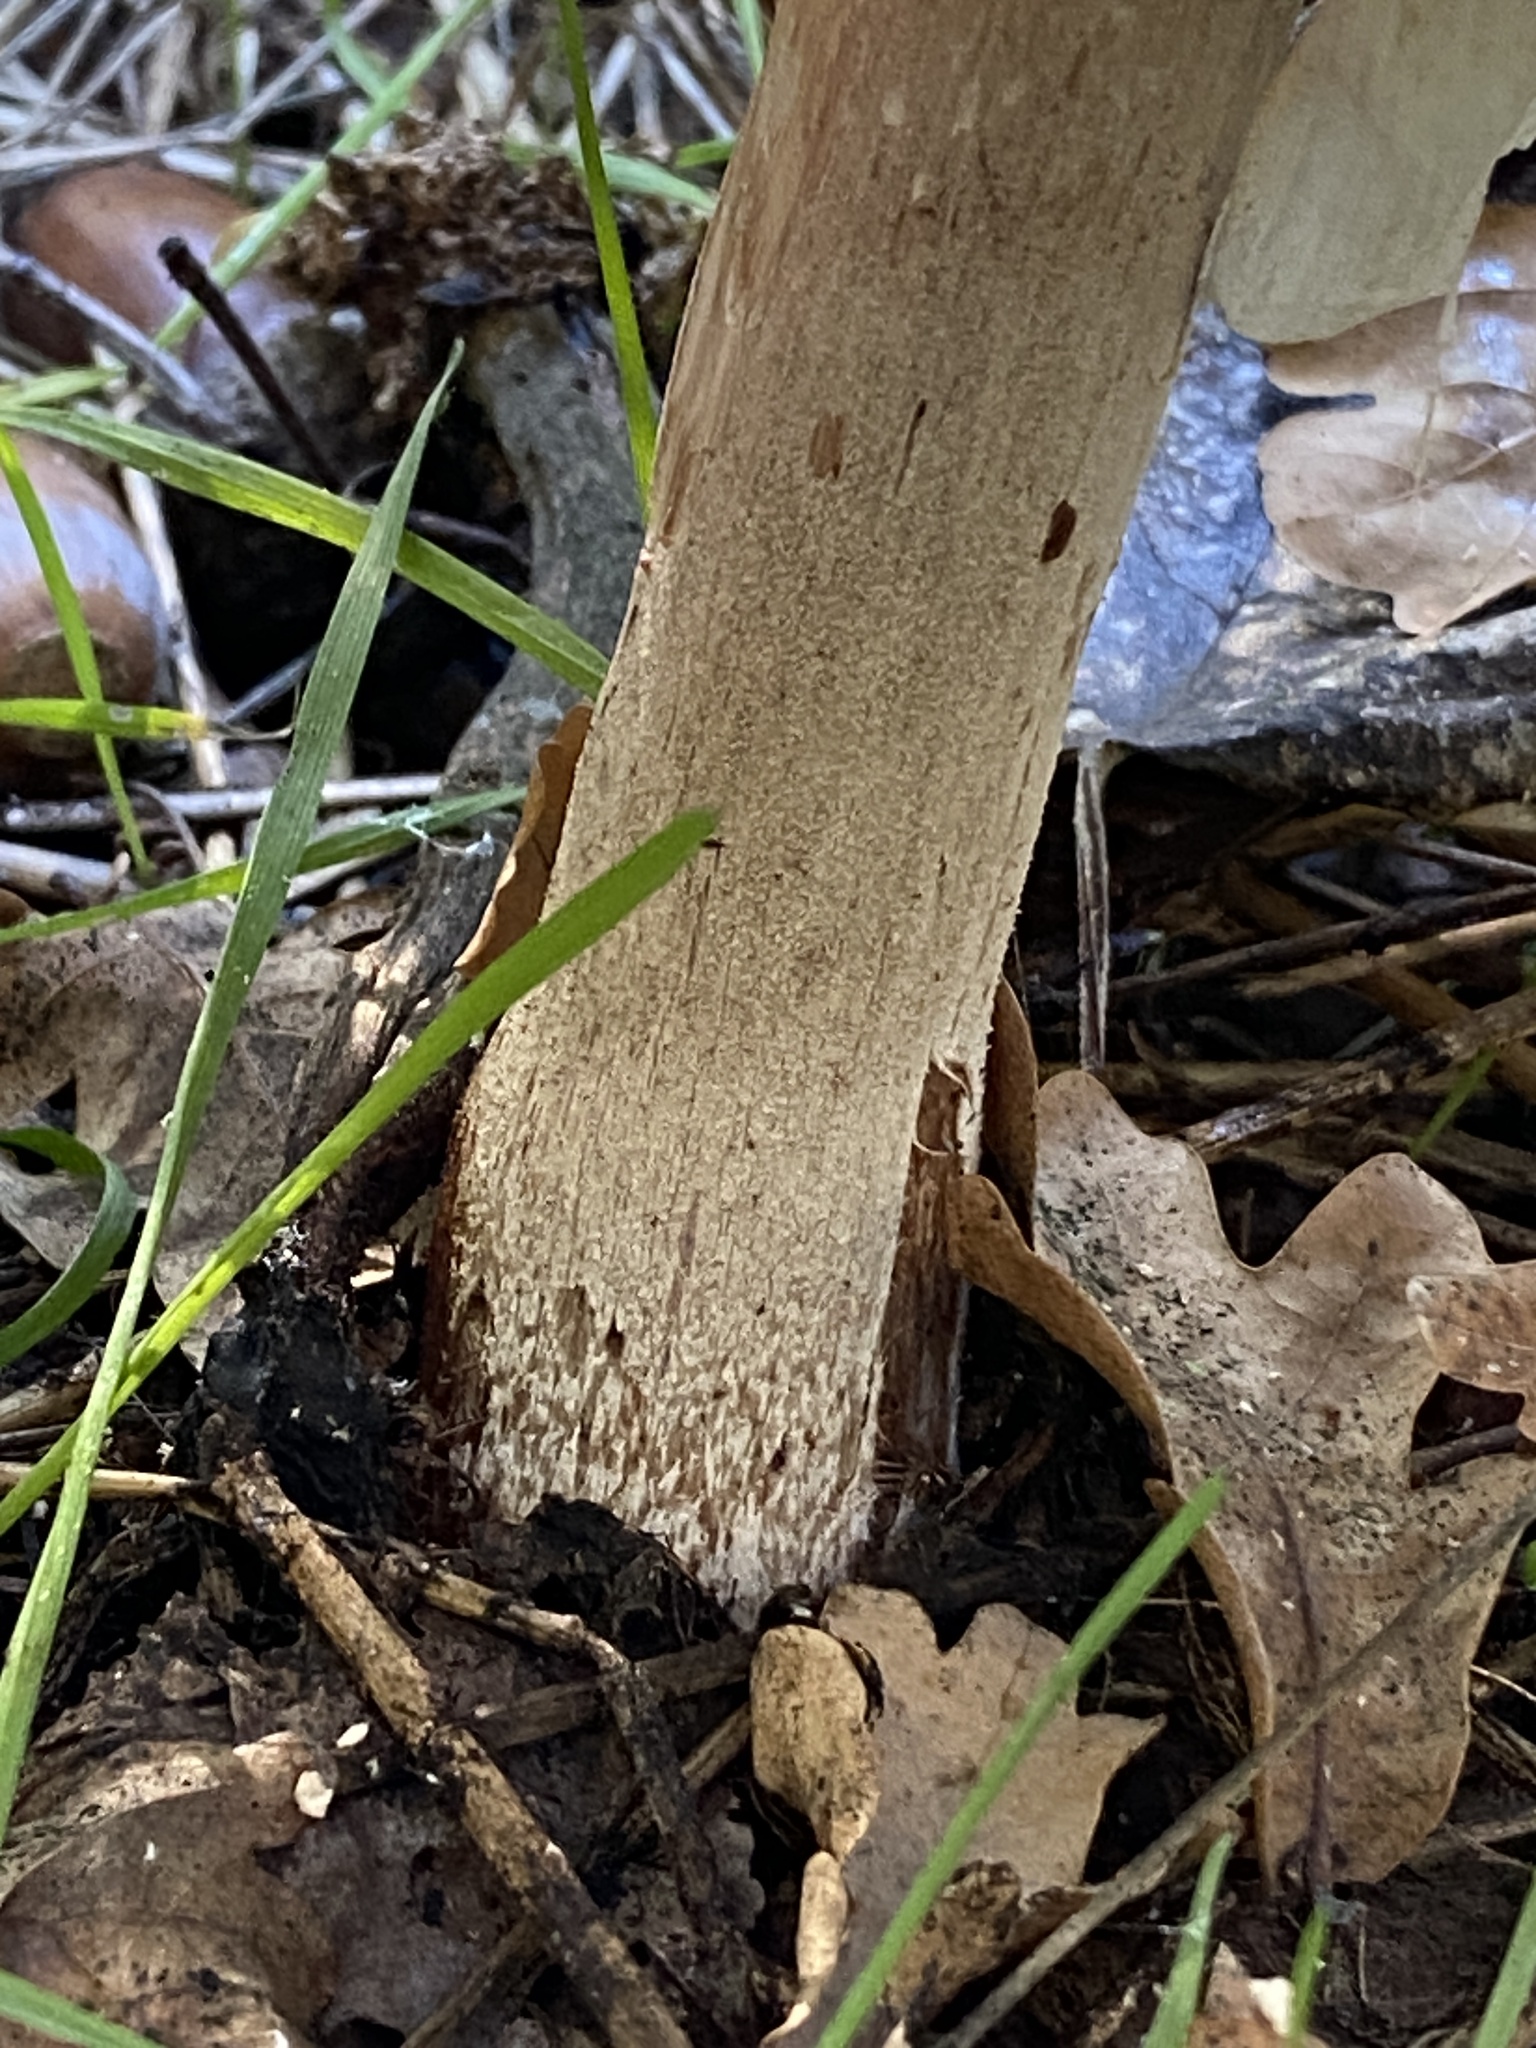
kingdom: Fungi
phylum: Basidiomycota
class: Agaricomycetes
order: Agaricales
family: Agaricaceae
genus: Macrolepiota
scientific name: Macrolepiota zeyheri
